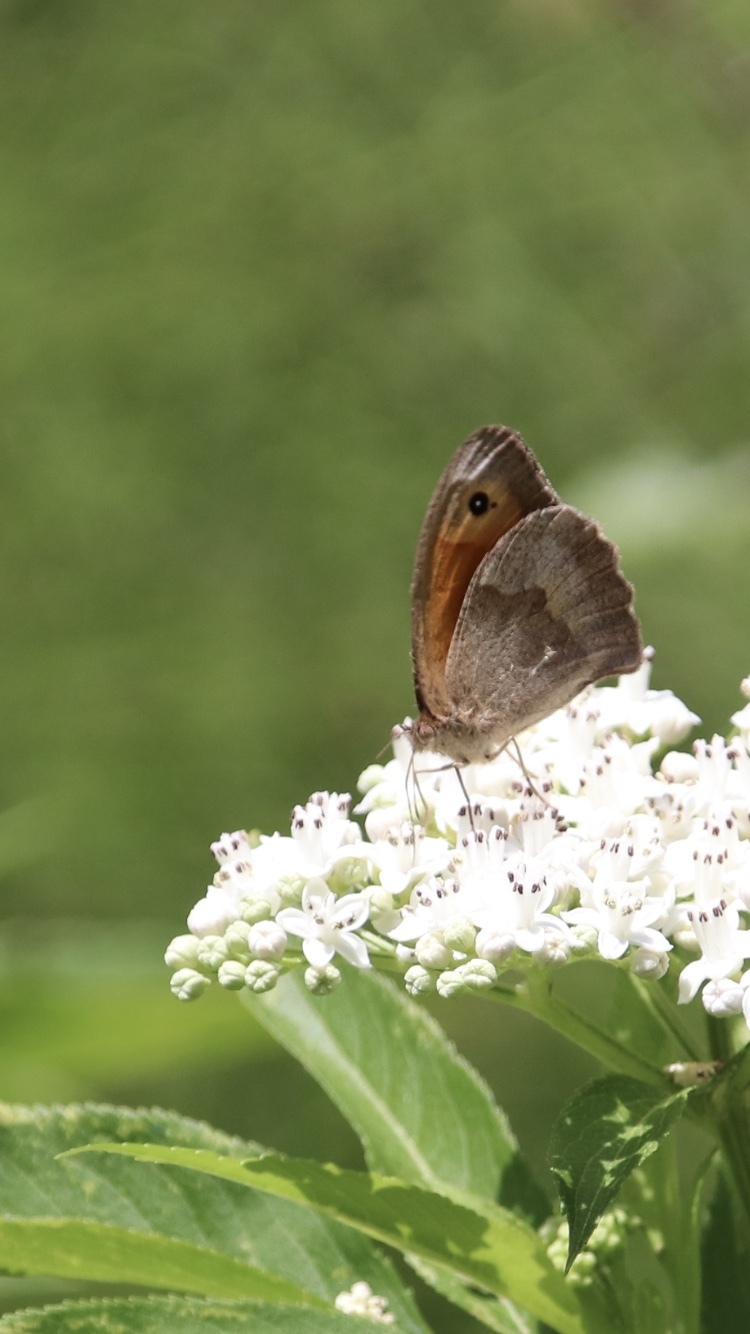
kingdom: Animalia
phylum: Arthropoda
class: Insecta
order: Lepidoptera
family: Nymphalidae
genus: Maniola
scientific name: Maniola jurtina
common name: Meadow brown
